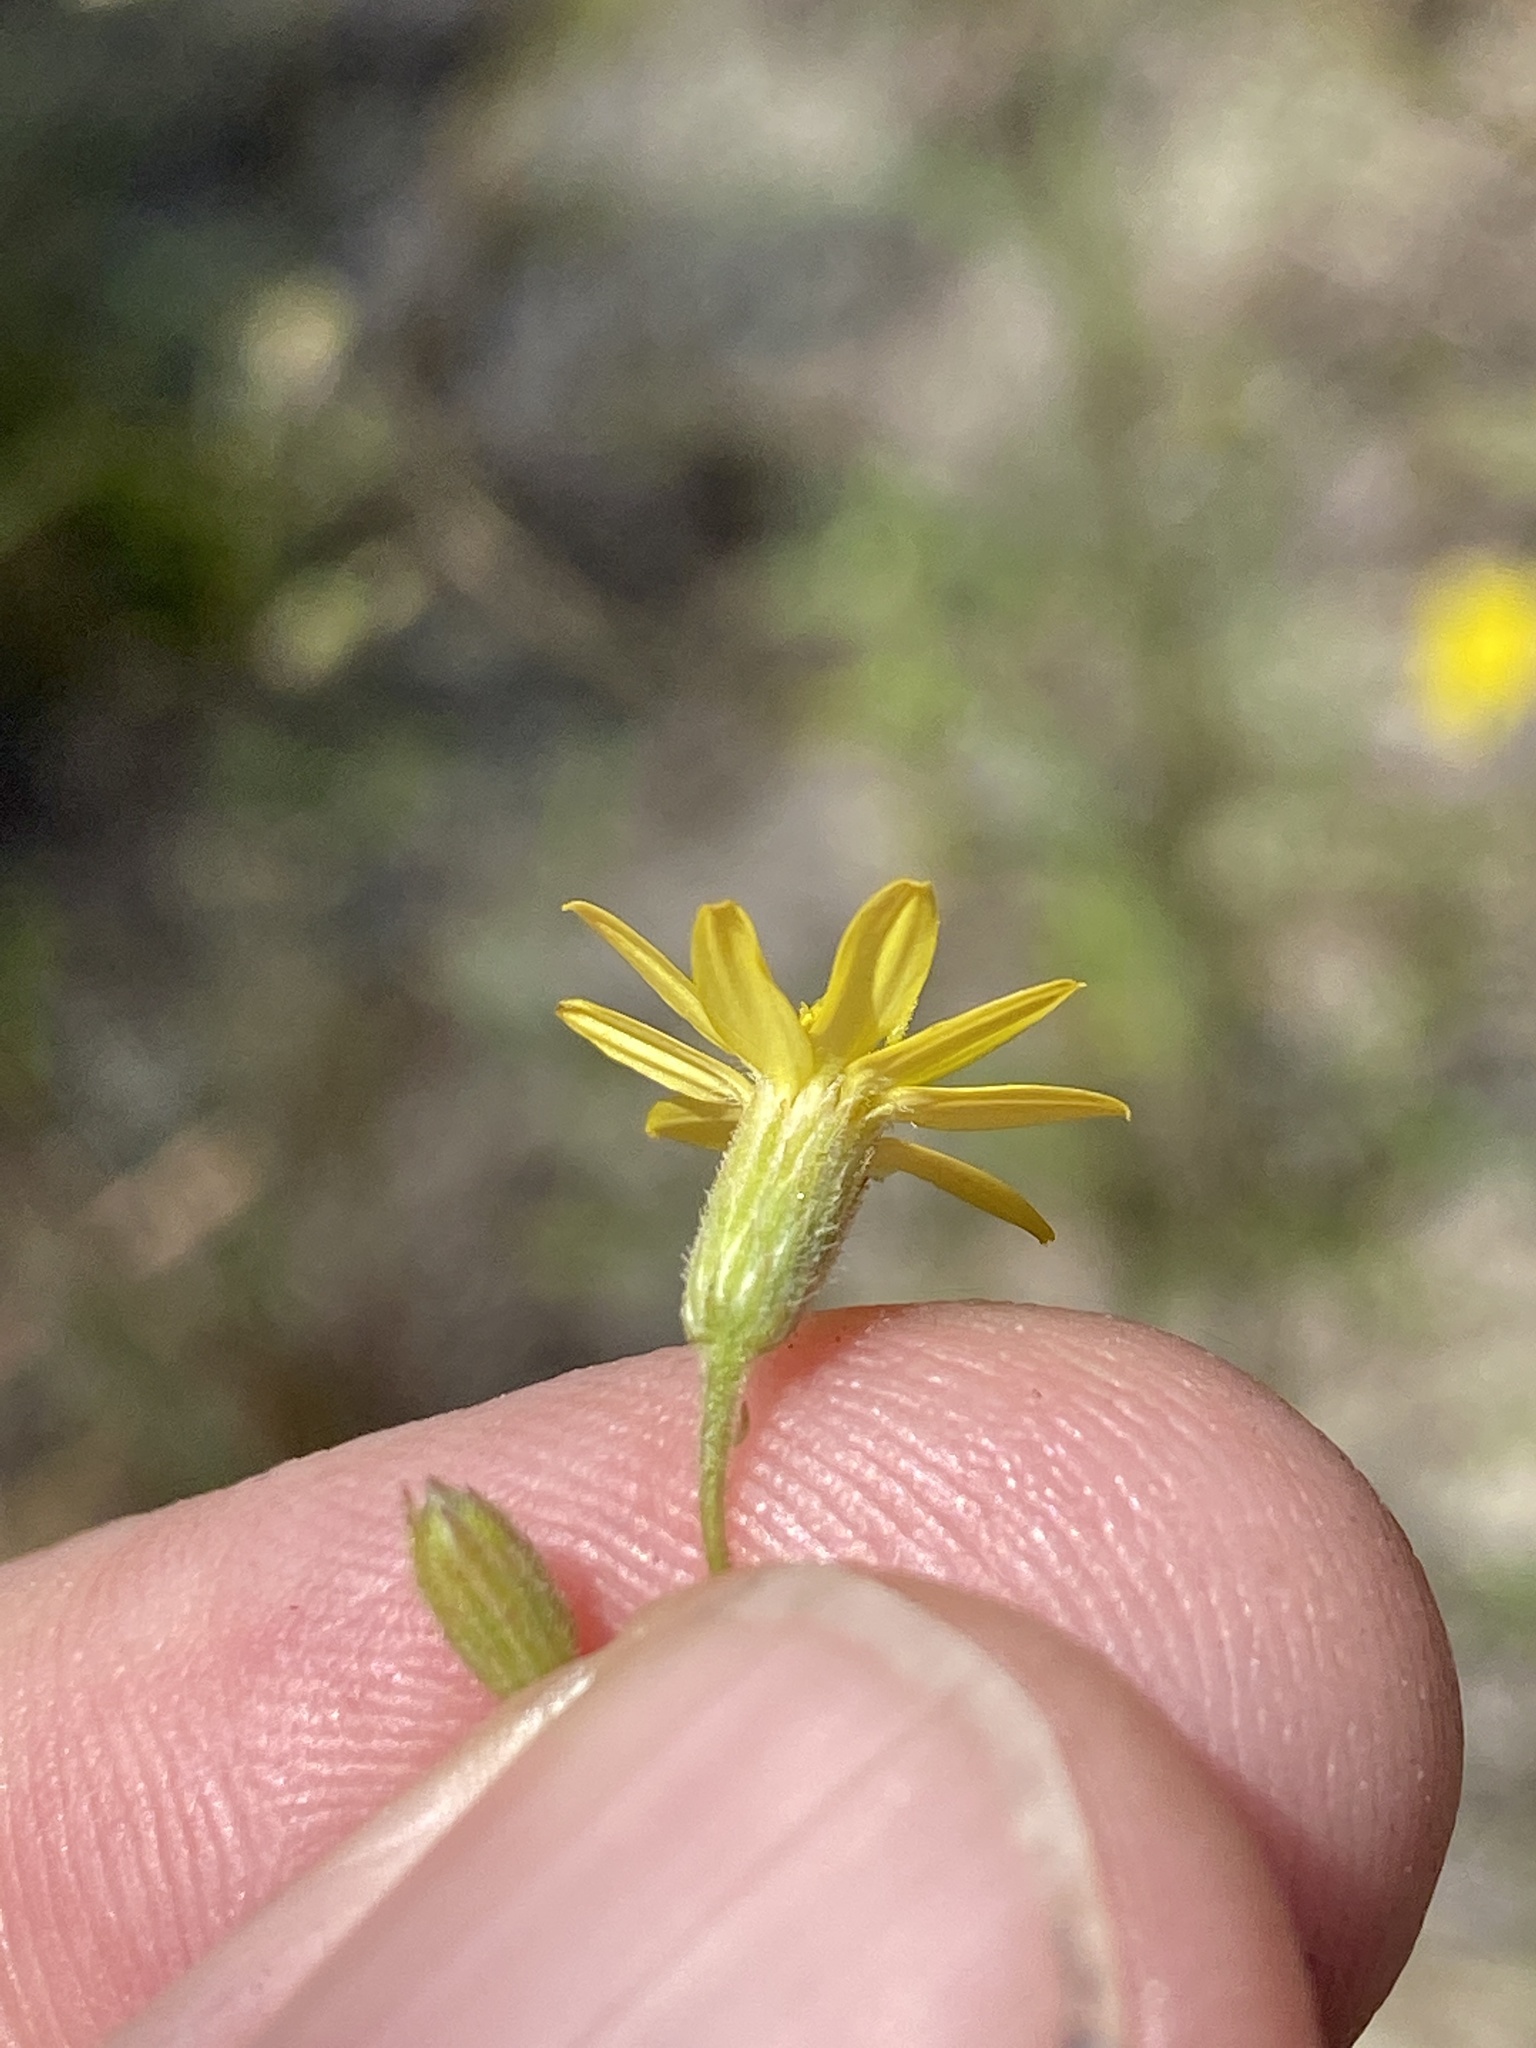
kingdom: Plantae
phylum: Tracheophyta
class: Magnoliopsida
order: Asterales
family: Asteraceae
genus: Croptilon
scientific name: Croptilon divaricatum
